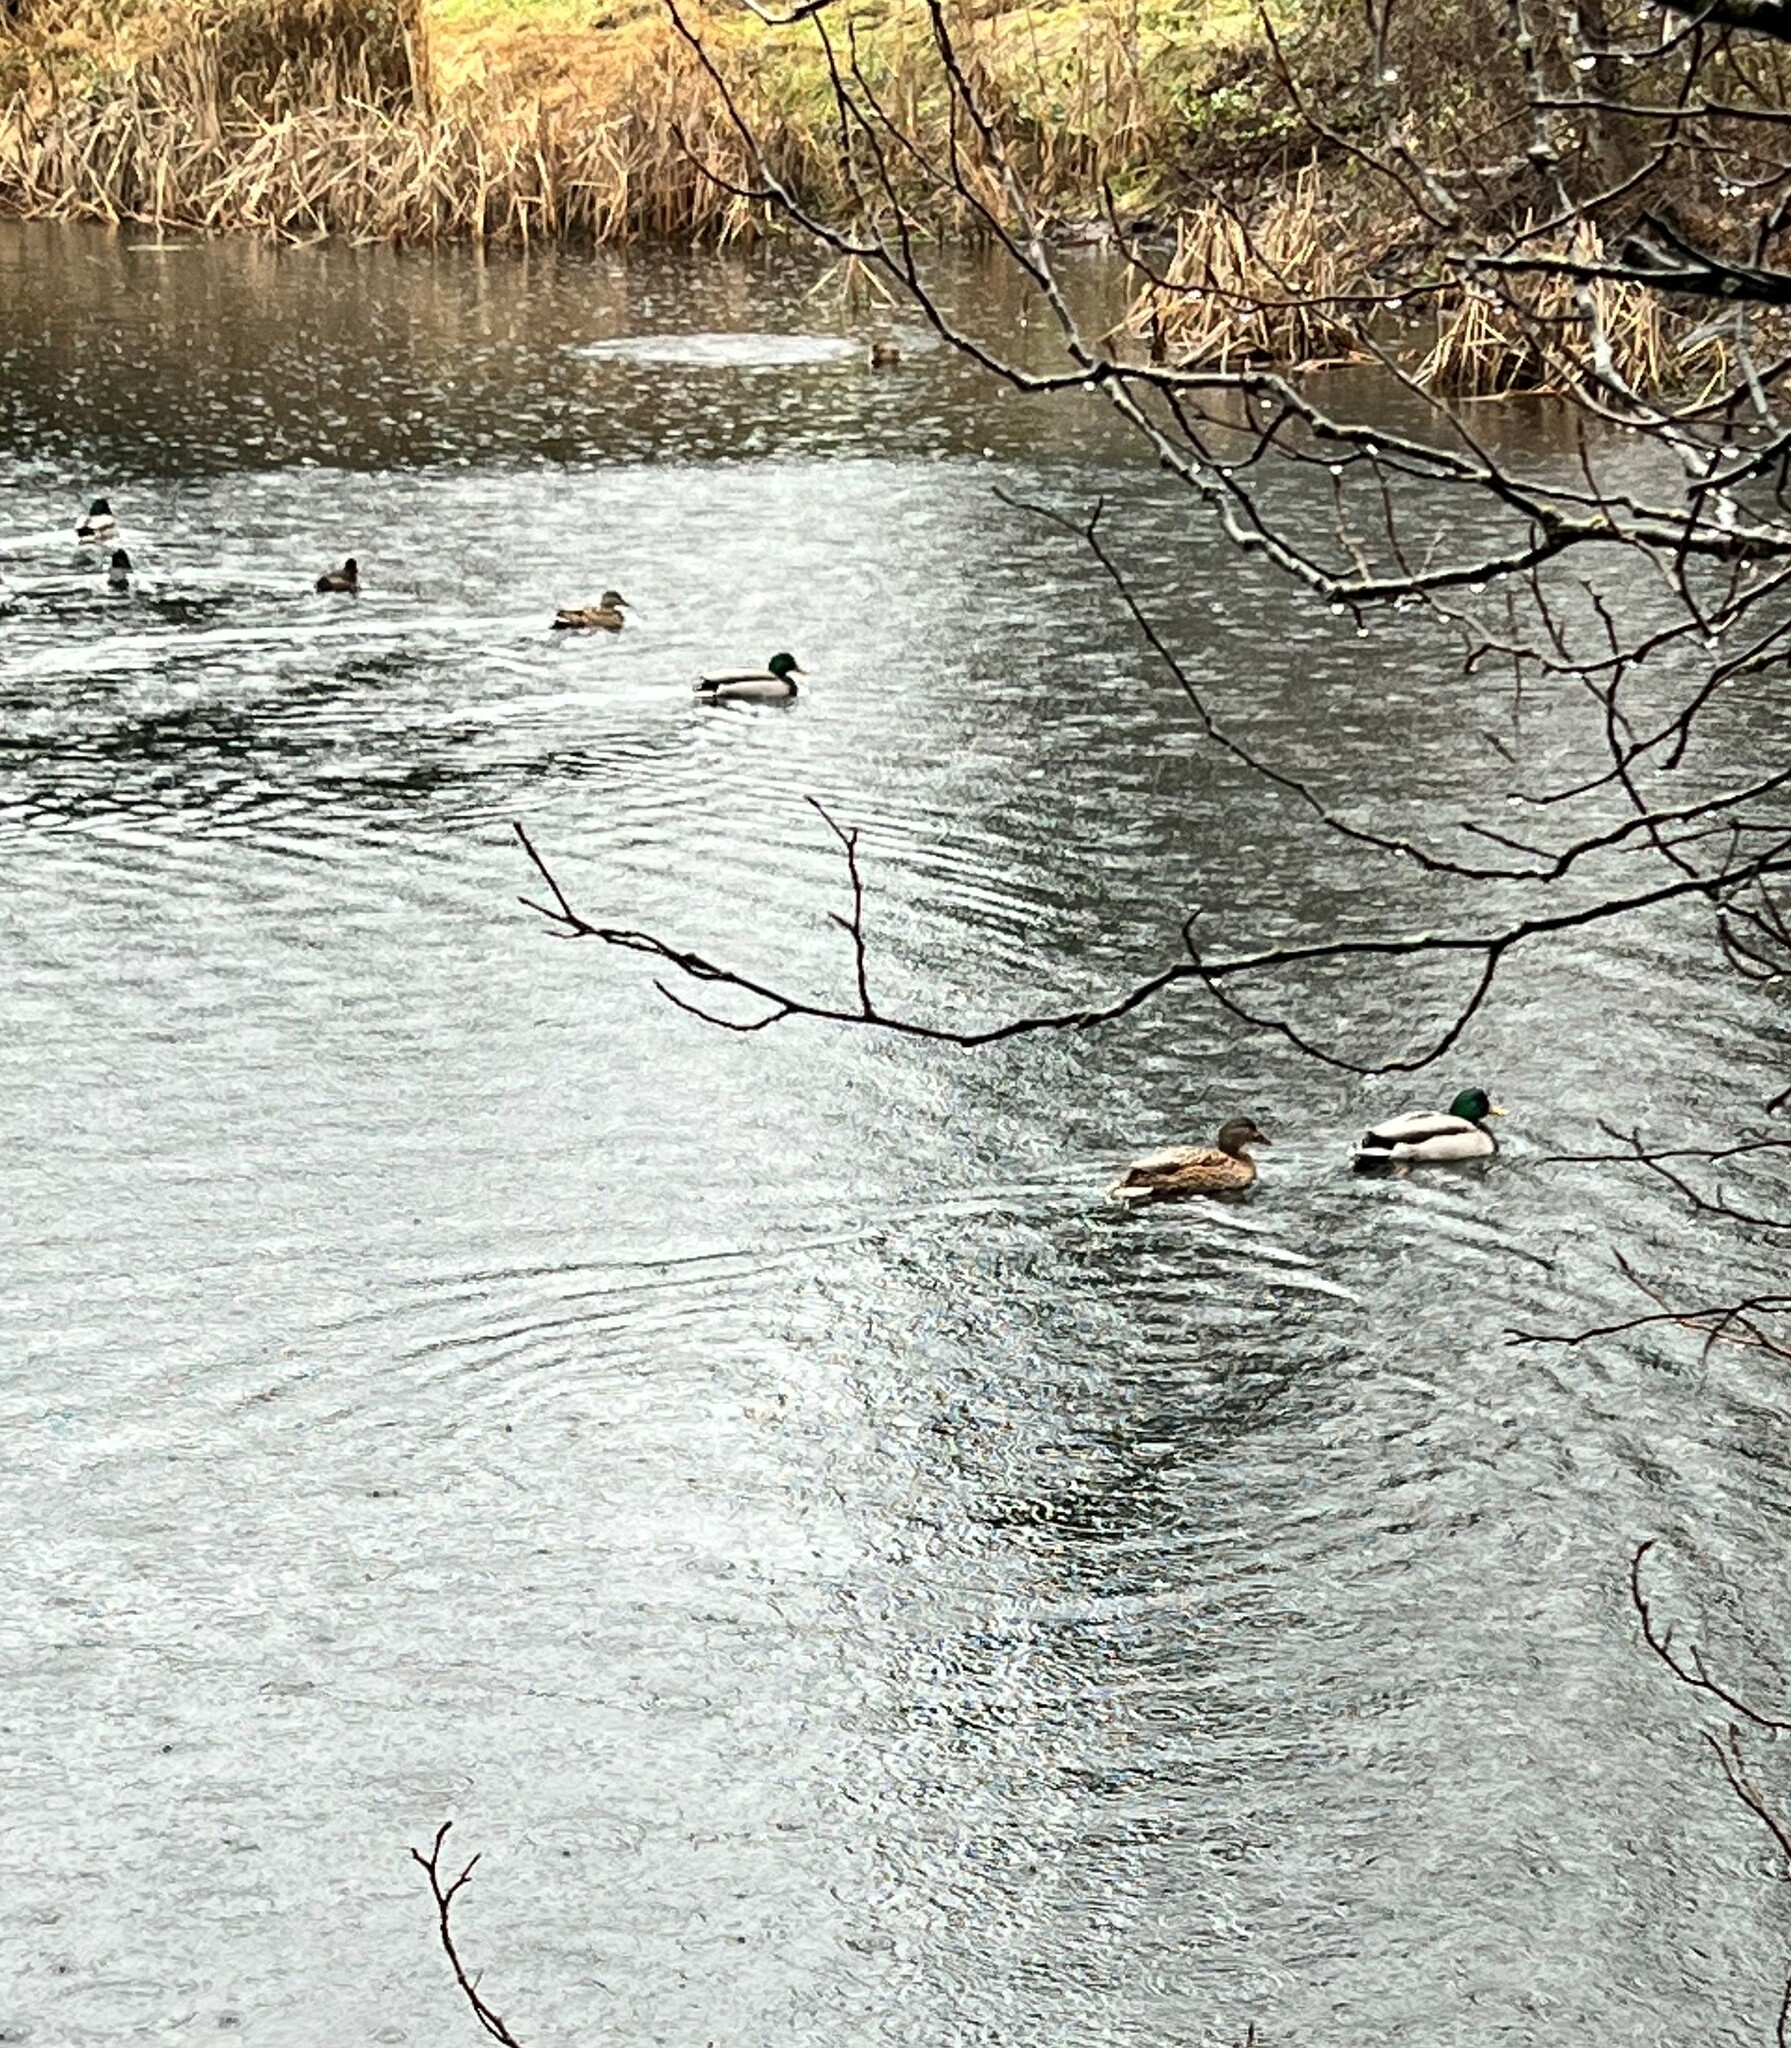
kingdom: Animalia
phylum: Chordata
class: Aves
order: Anseriformes
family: Anatidae
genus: Anas
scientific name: Anas platyrhynchos
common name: Mallard
